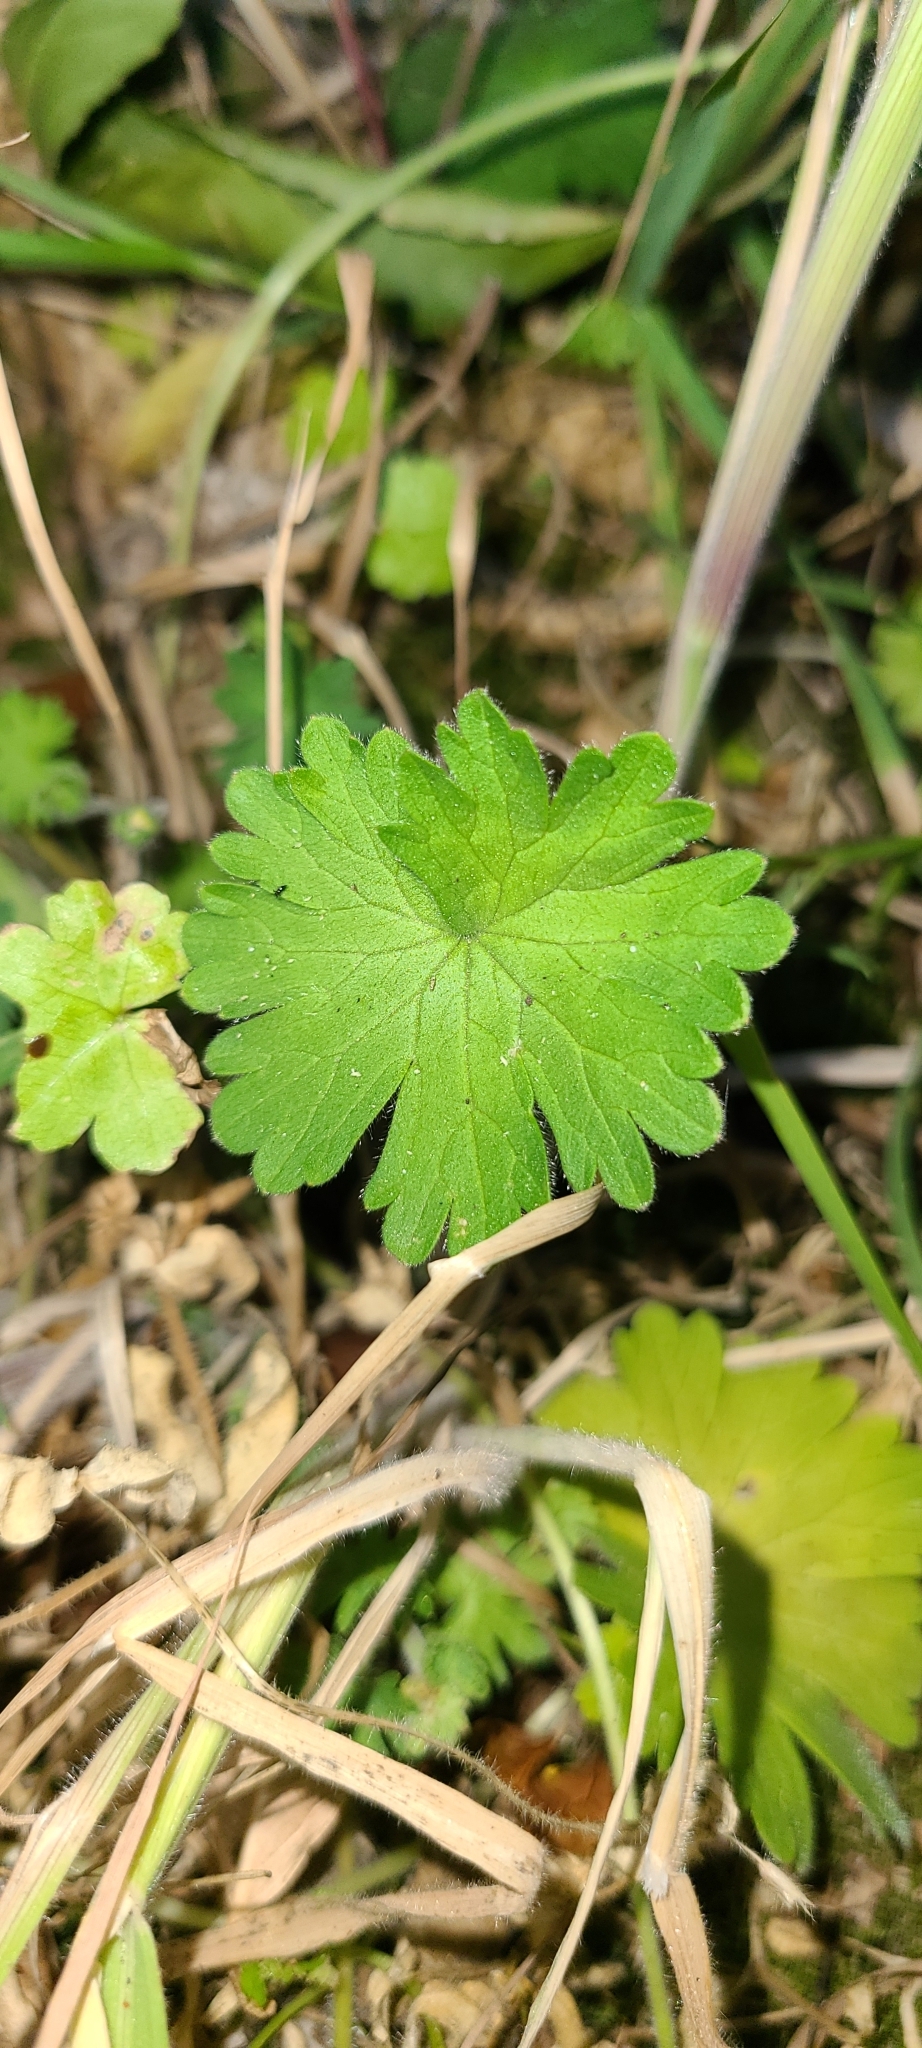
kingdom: Plantae
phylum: Tracheophyta
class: Magnoliopsida
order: Geraniales
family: Geraniaceae
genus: Geranium
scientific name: Geranium molle
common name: Dove's-foot crane's-bill
